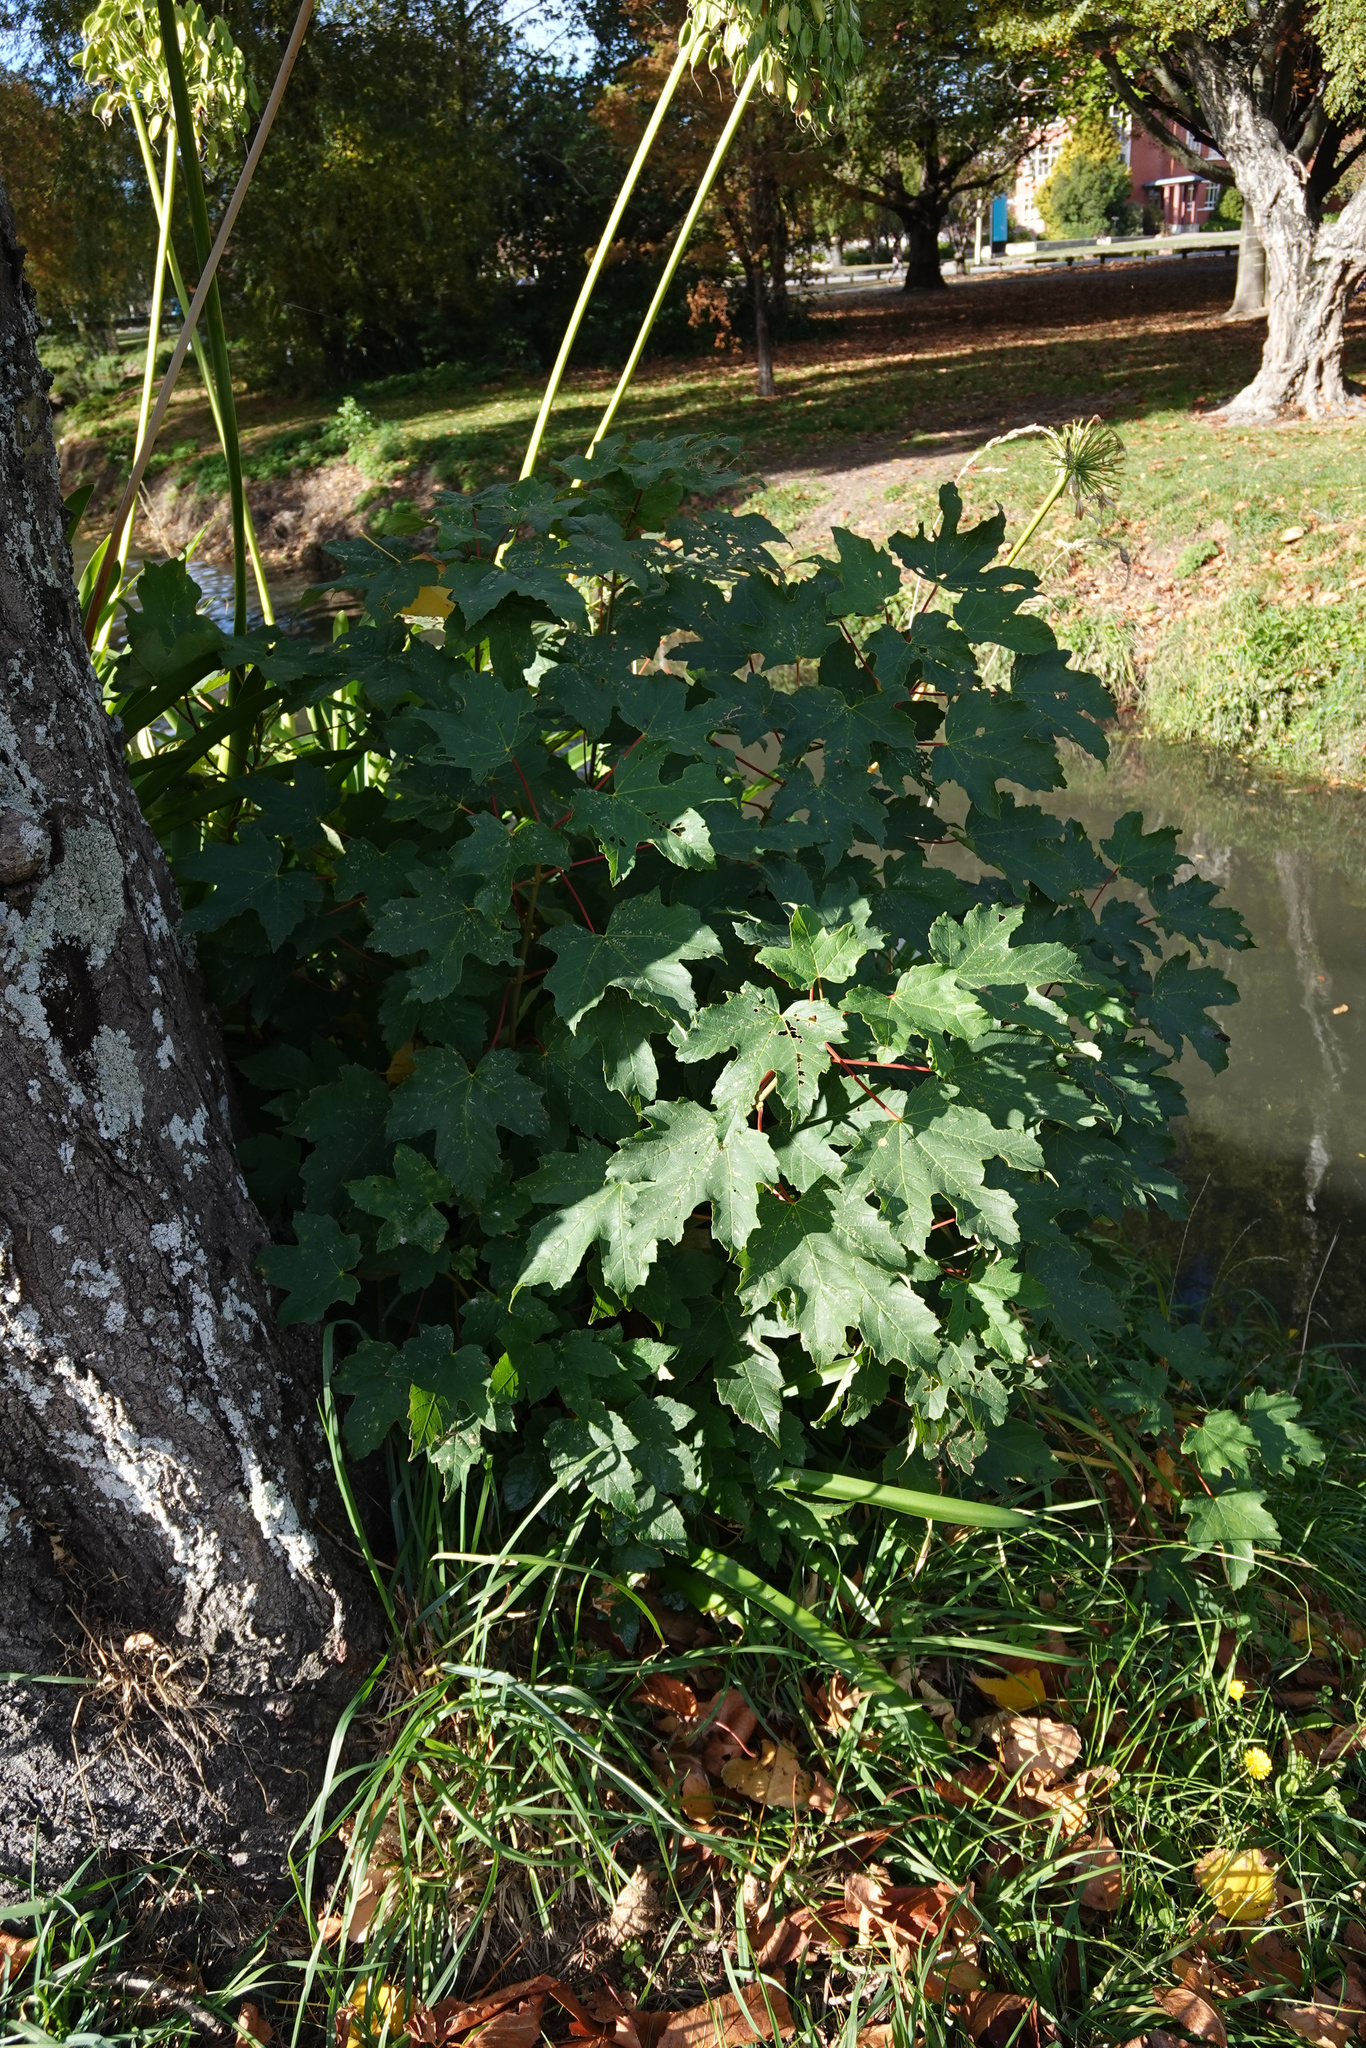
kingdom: Plantae
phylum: Tracheophyta
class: Magnoliopsida
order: Sapindales
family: Sapindaceae
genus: Acer
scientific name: Acer pseudoplatanus
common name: Sycamore
